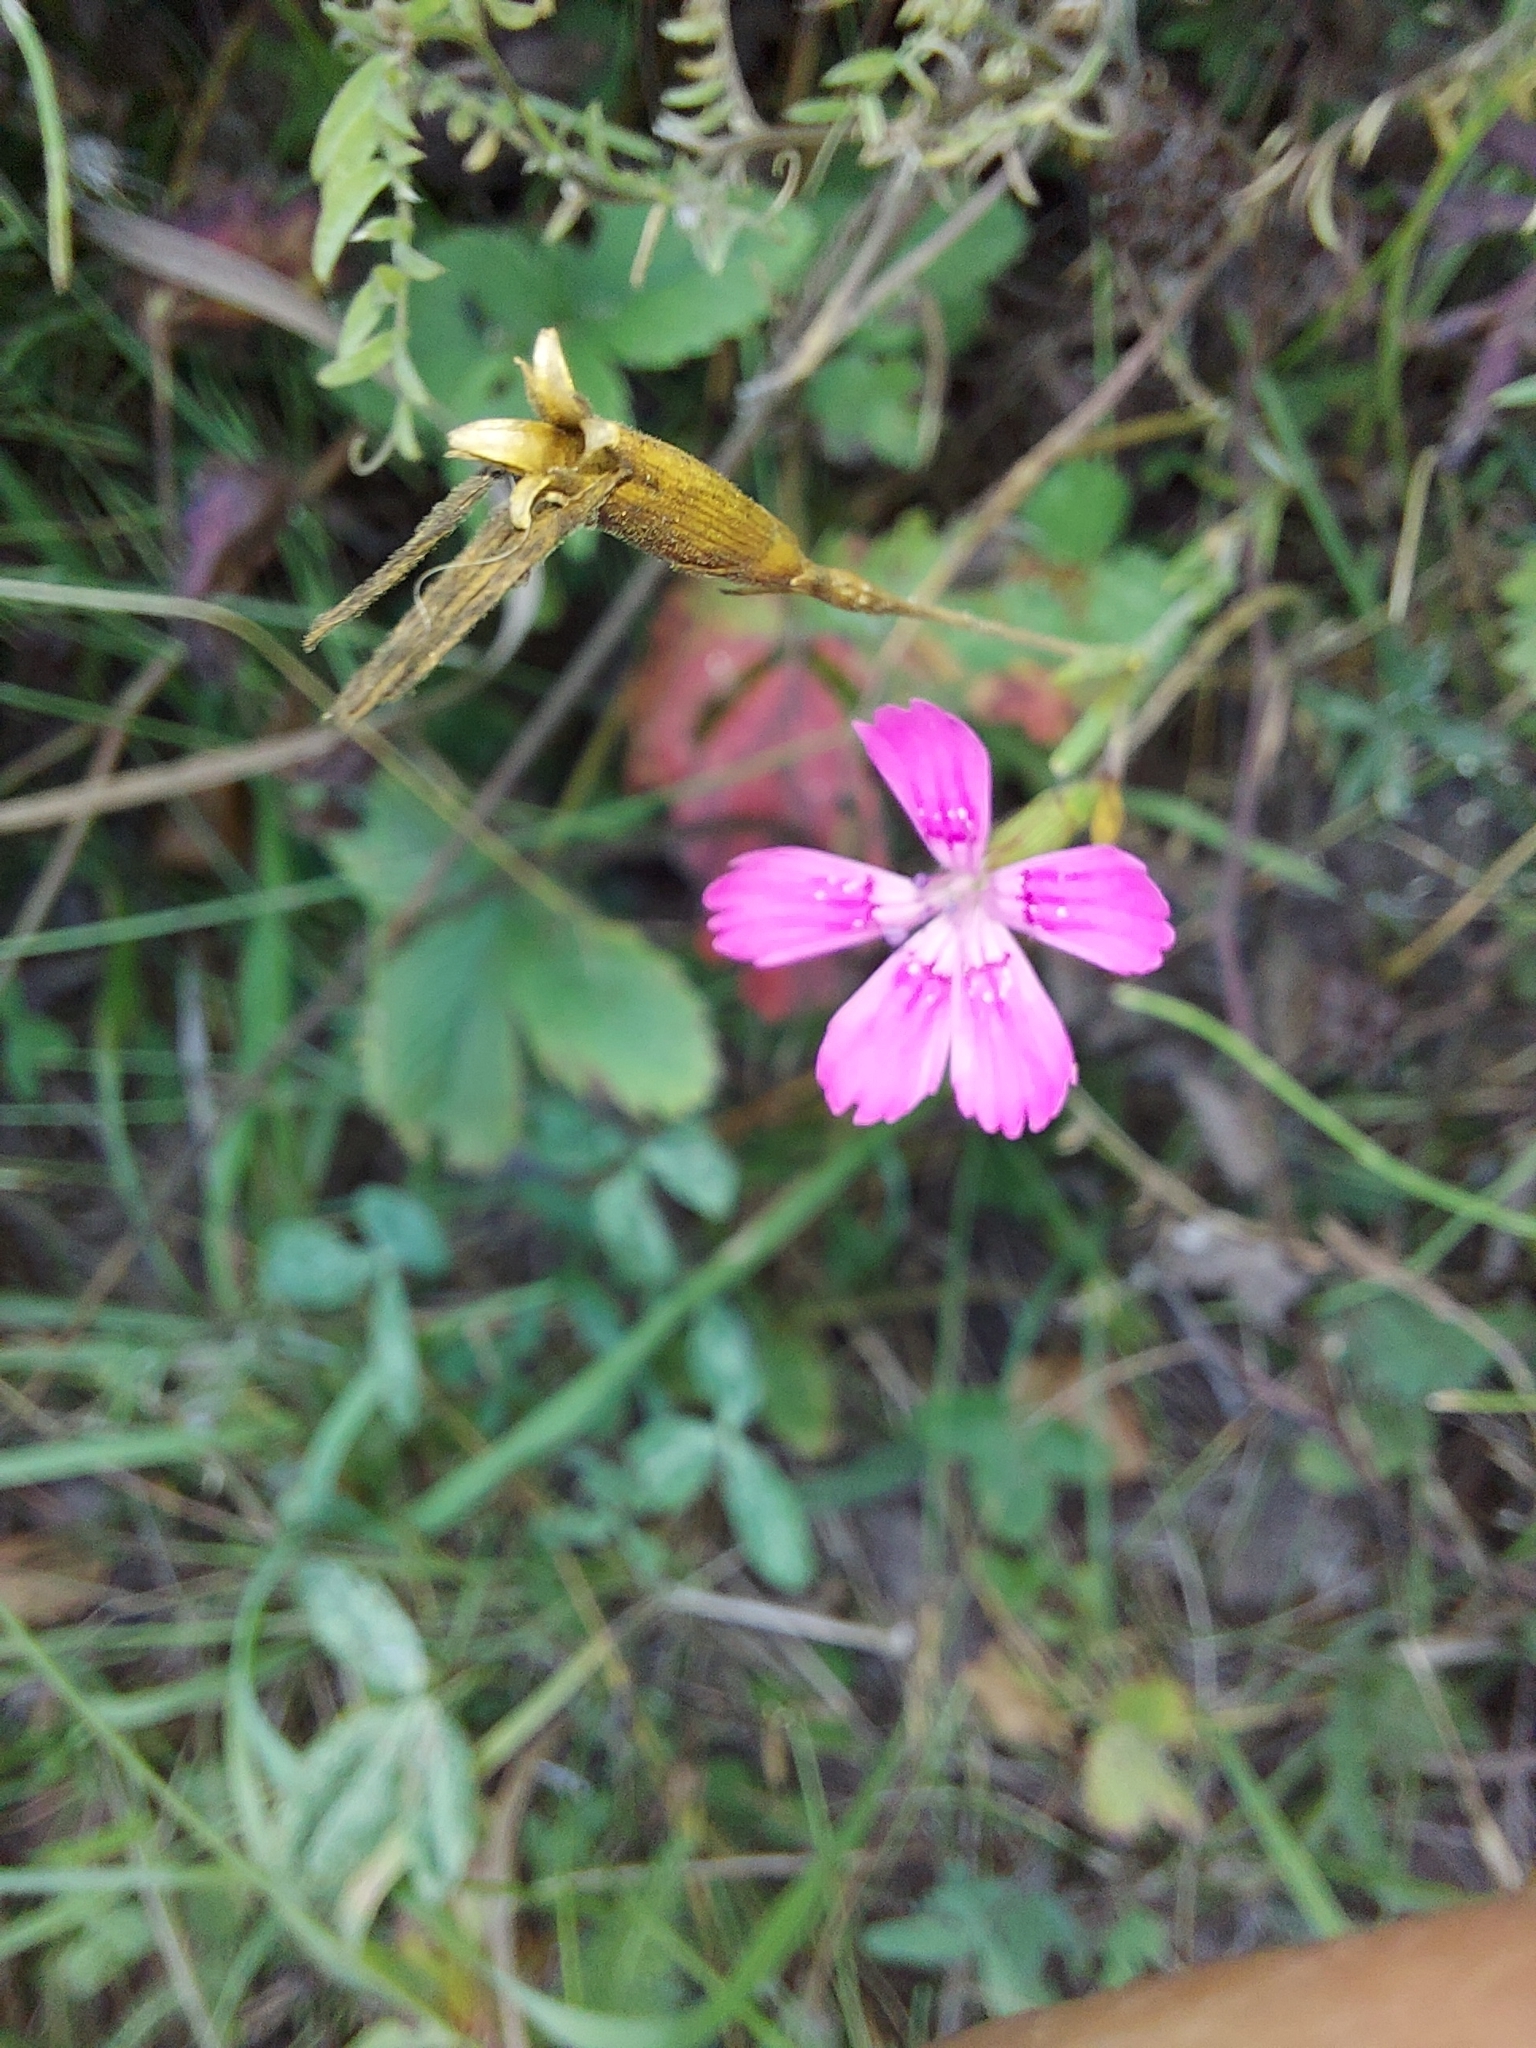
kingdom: Plantae
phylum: Tracheophyta
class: Magnoliopsida
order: Caryophyllales
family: Caryophyllaceae
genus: Dianthus
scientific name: Dianthus deltoides
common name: Maiden pink
